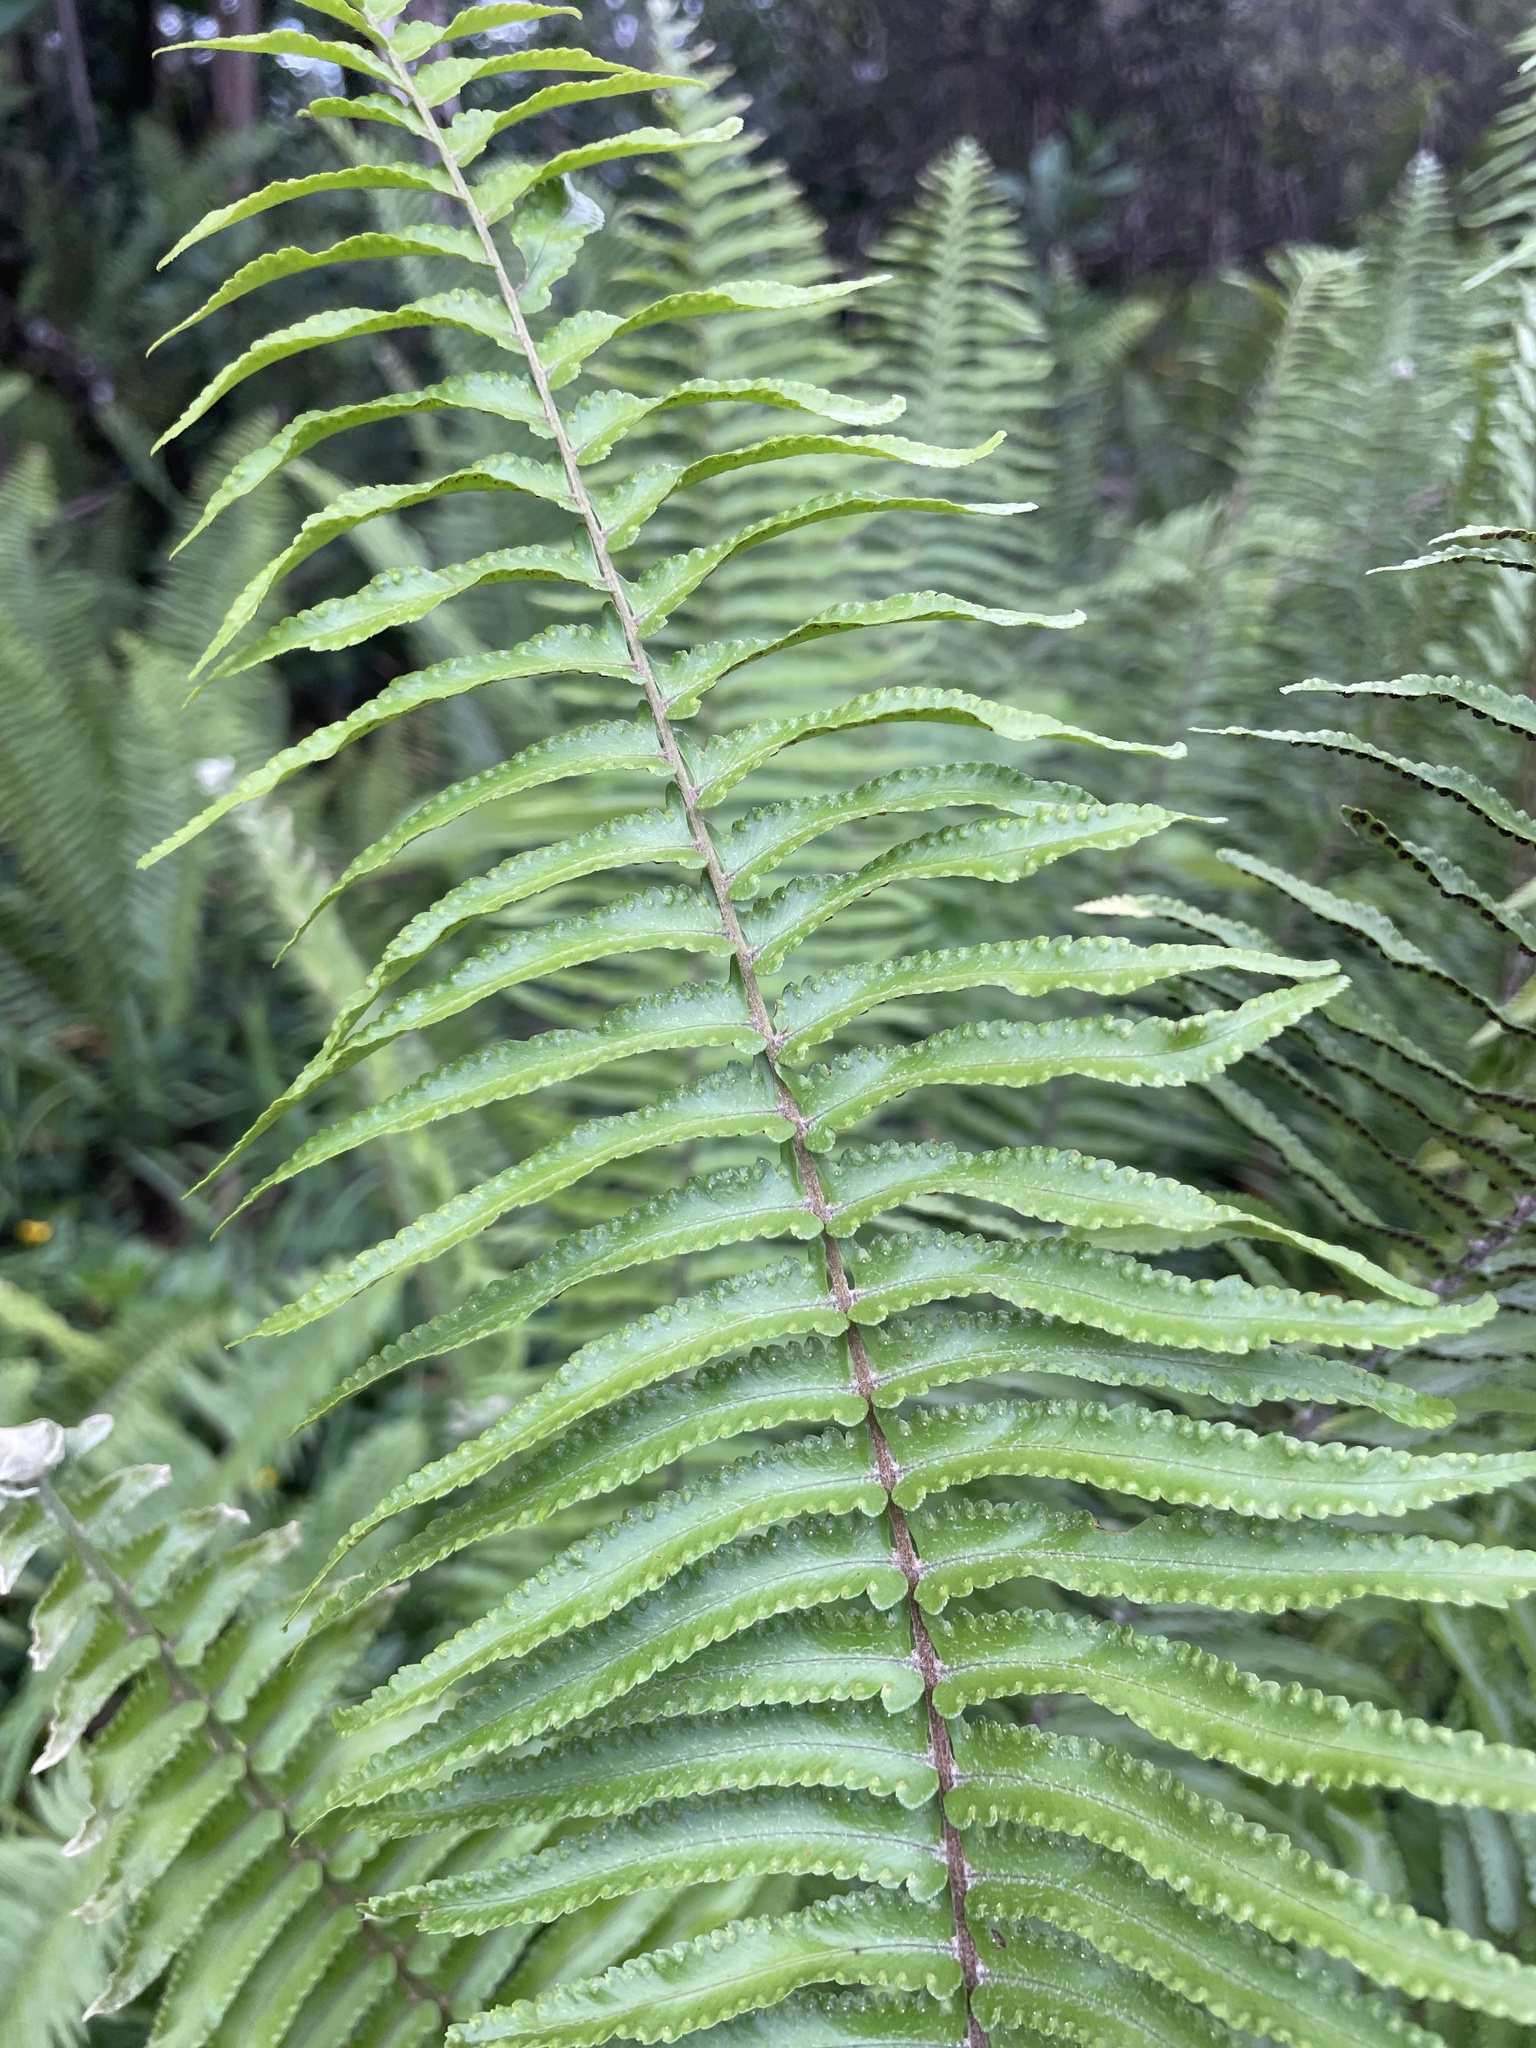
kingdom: Plantae
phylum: Tracheophyta
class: Polypodiopsida
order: Polypodiales
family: Nephrolepidaceae
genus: Nephrolepis
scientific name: Nephrolepis brownii
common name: Asian swordfern
